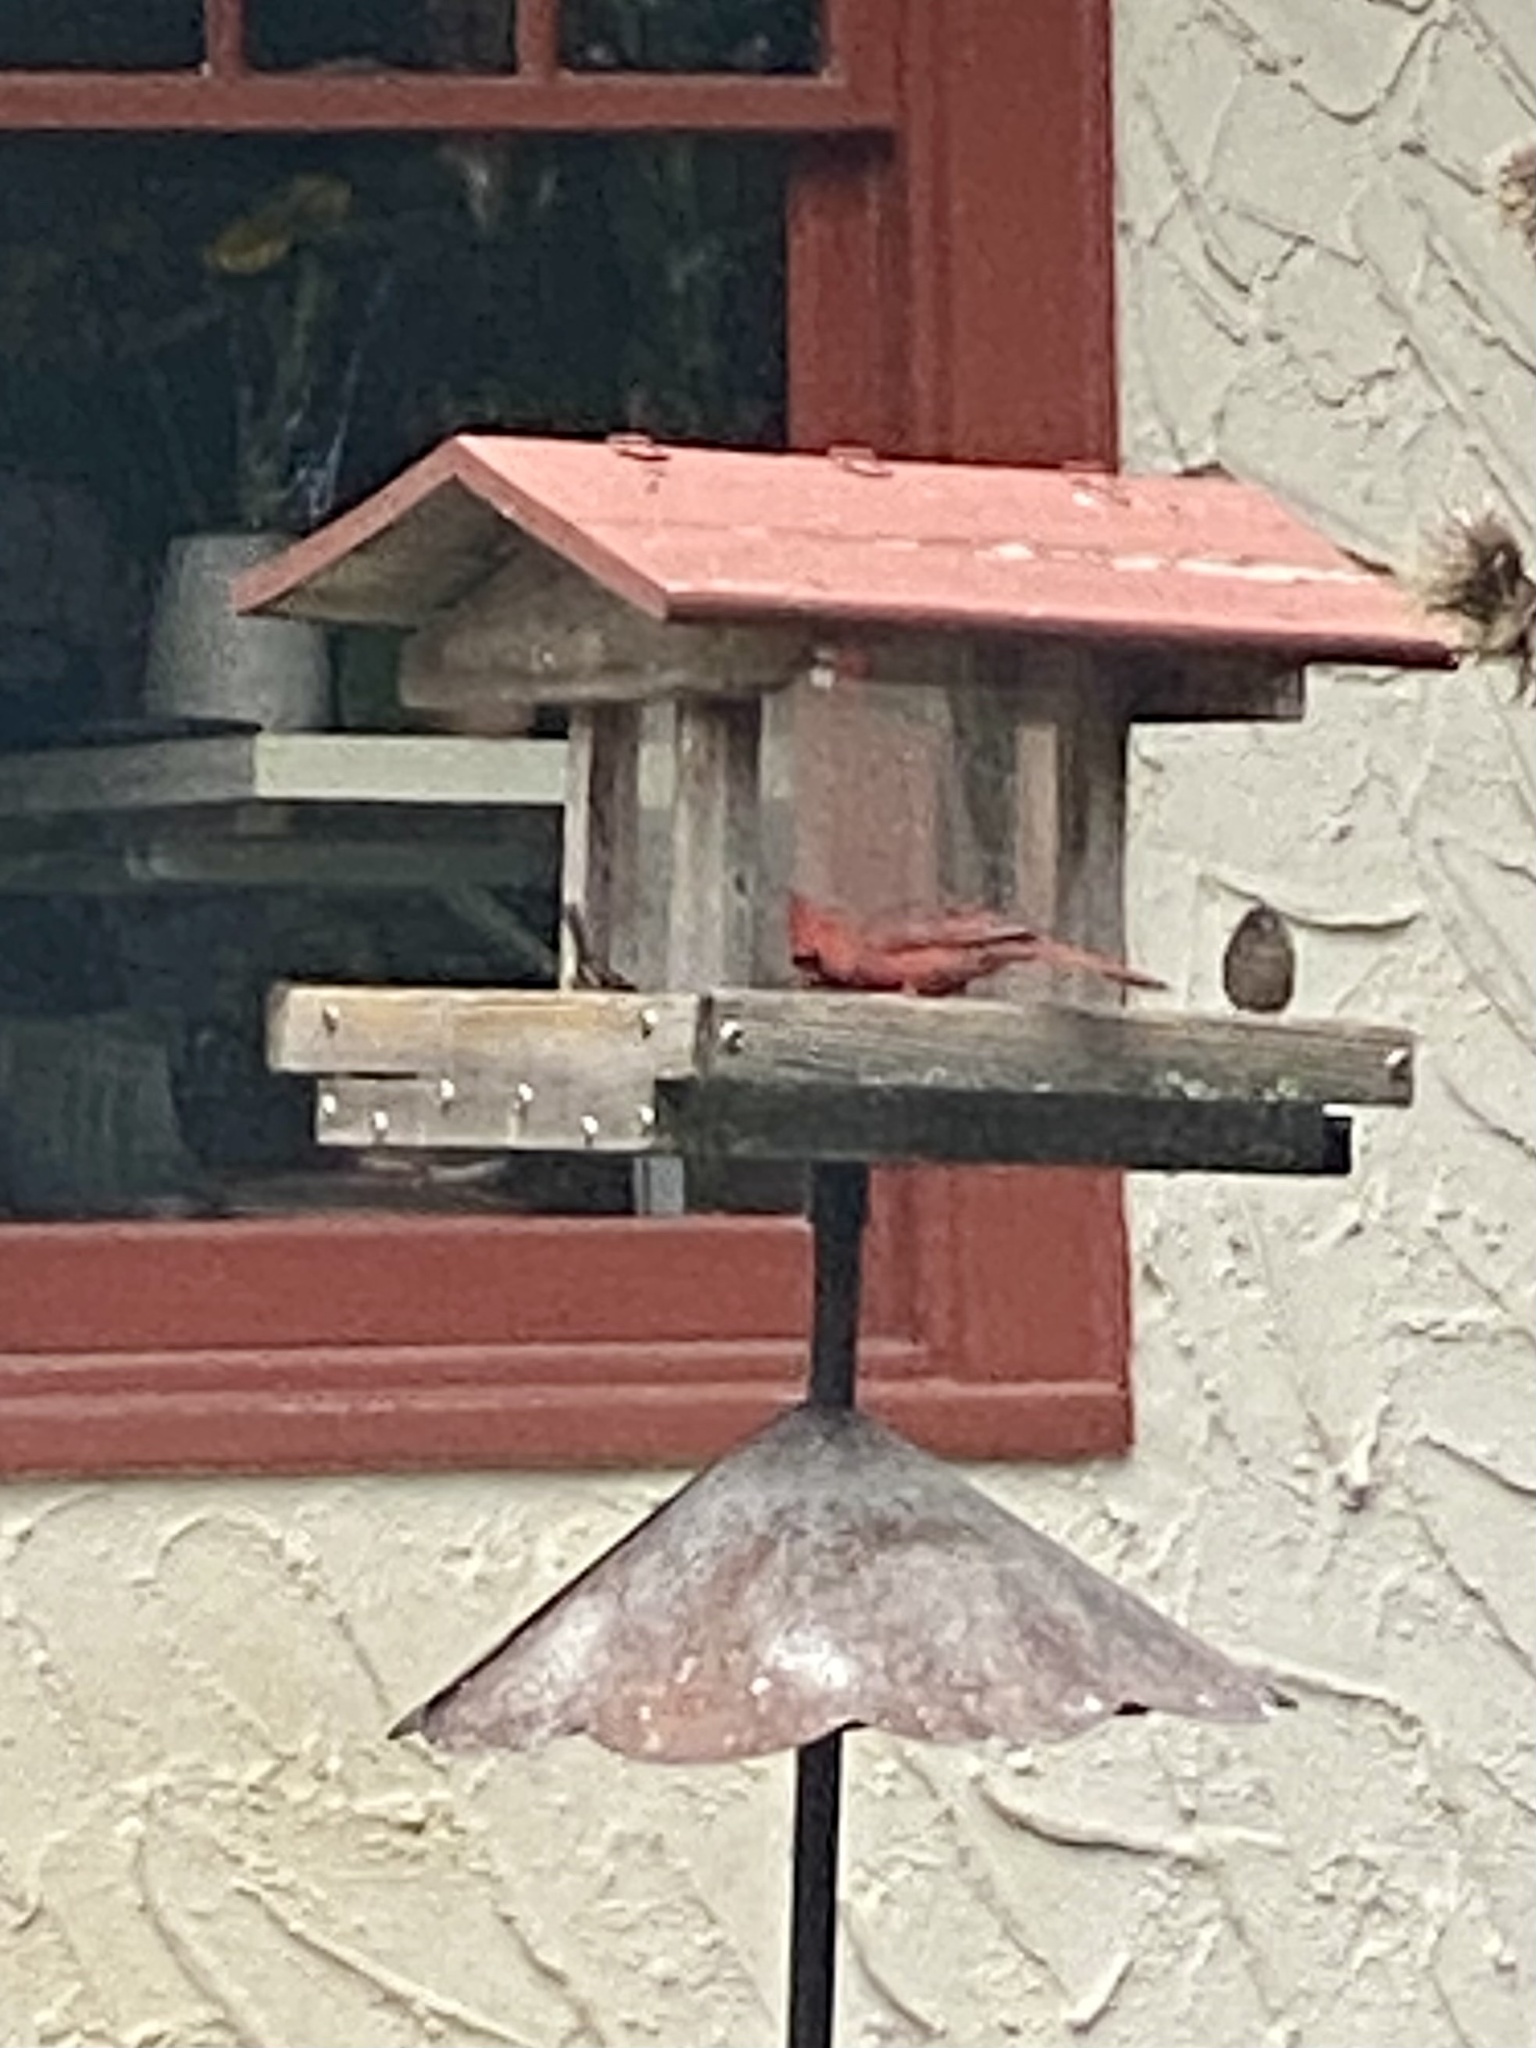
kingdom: Animalia
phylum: Chordata
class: Aves
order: Passeriformes
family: Cardinalidae
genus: Cardinalis
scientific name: Cardinalis cardinalis
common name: Northern cardinal
